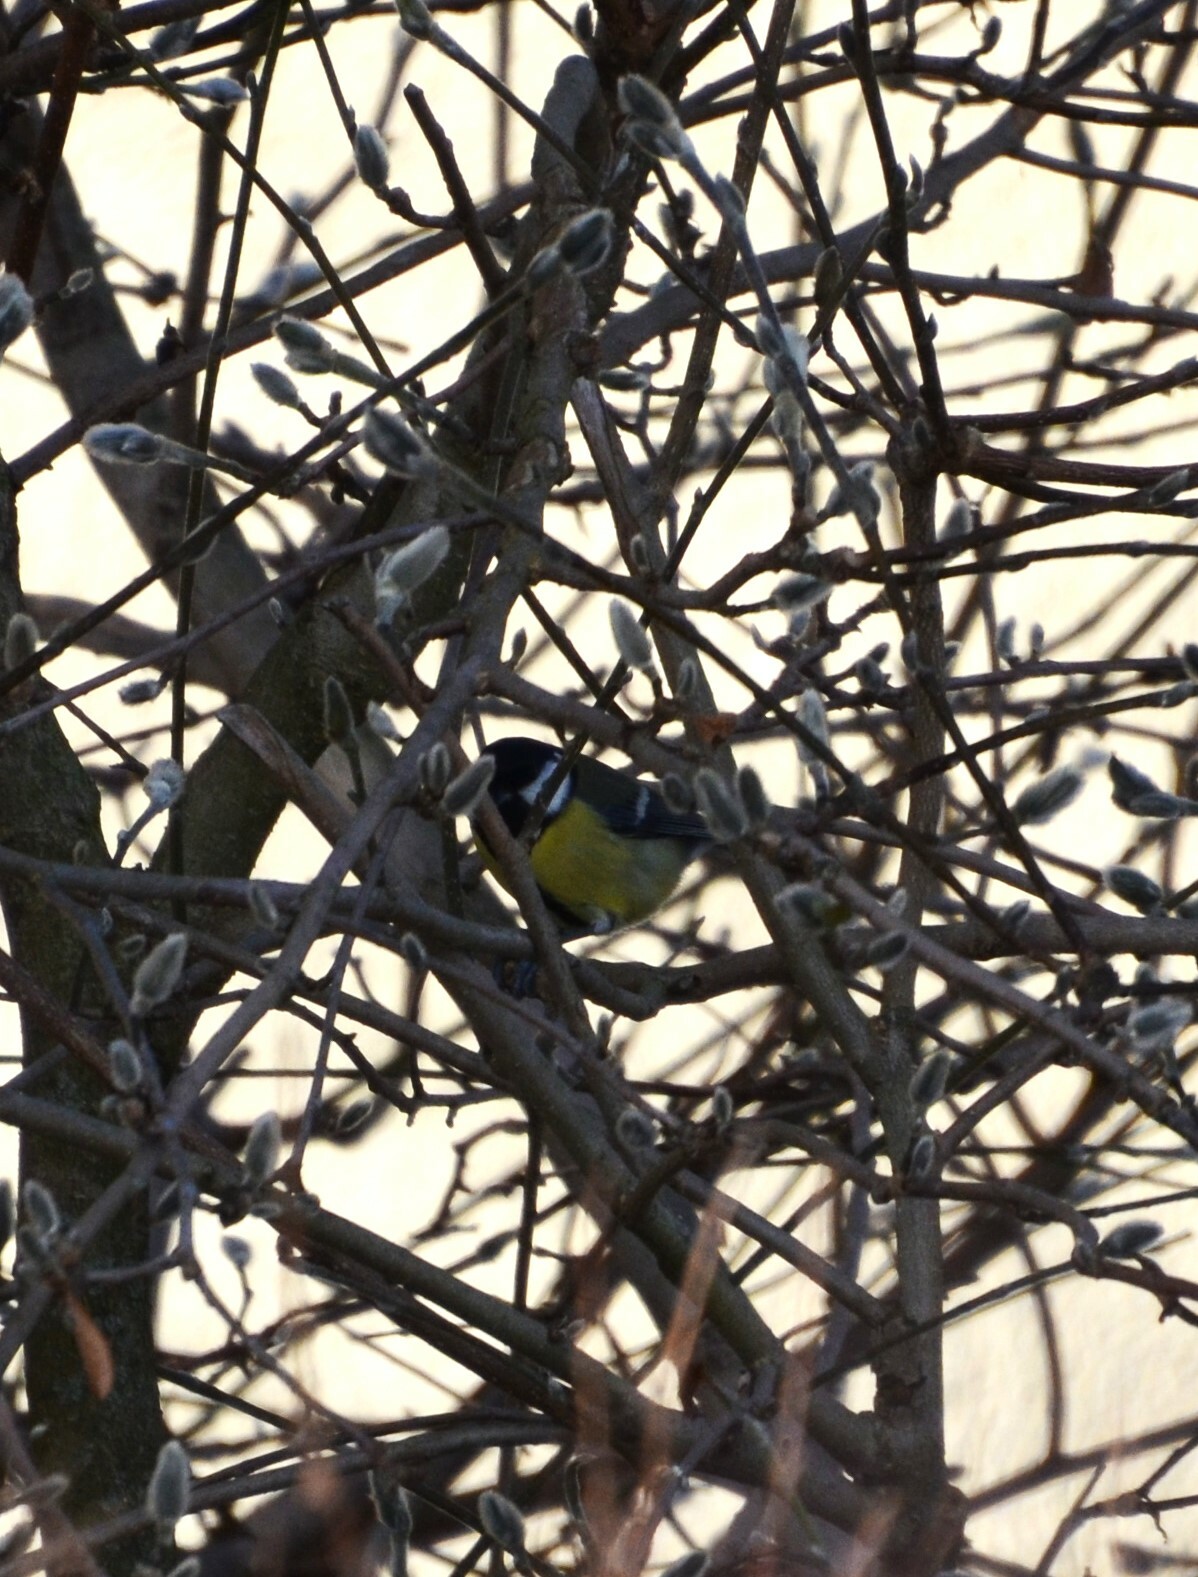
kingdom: Animalia
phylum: Chordata
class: Aves
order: Passeriformes
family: Paridae
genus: Parus
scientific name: Parus major
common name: Great tit
